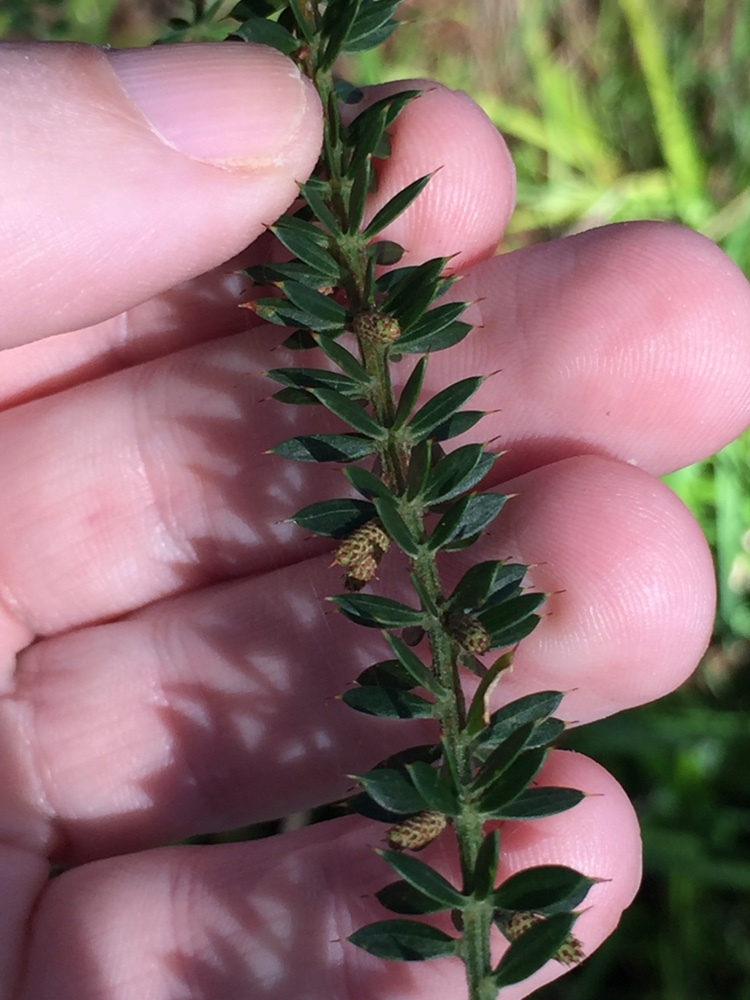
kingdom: Plantae
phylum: Tracheophyta
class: Magnoliopsida
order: Fabales
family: Fabaceae
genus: Acacia
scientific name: Acacia verticillata
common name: Prickly moses
